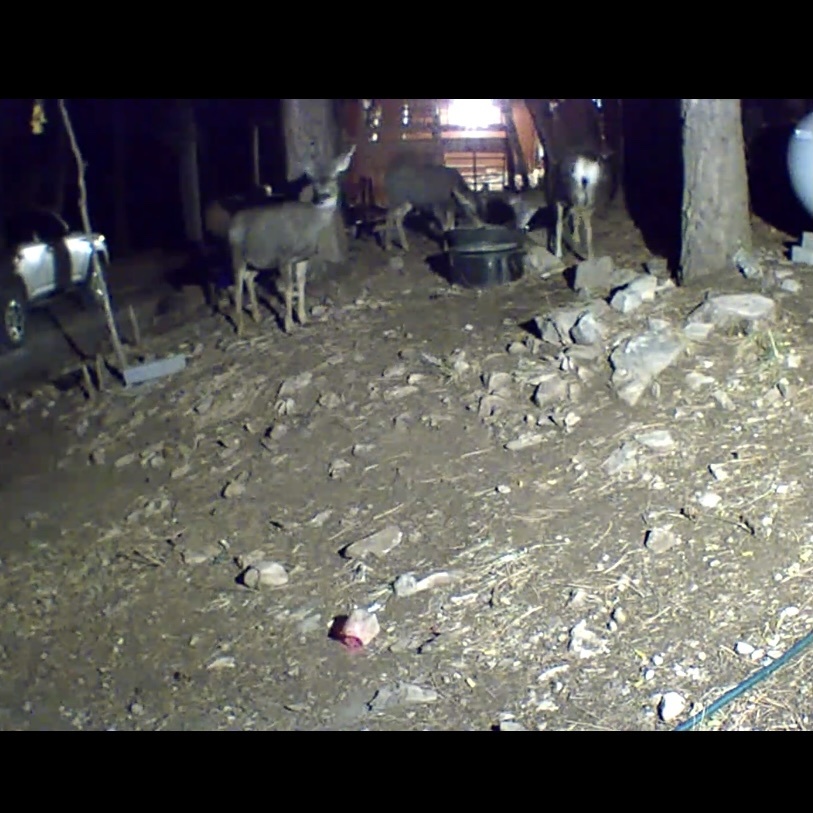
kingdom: Animalia
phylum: Chordata
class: Mammalia
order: Artiodactyla
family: Cervidae
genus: Odocoileus
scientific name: Odocoileus hemionus
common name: Mule deer
